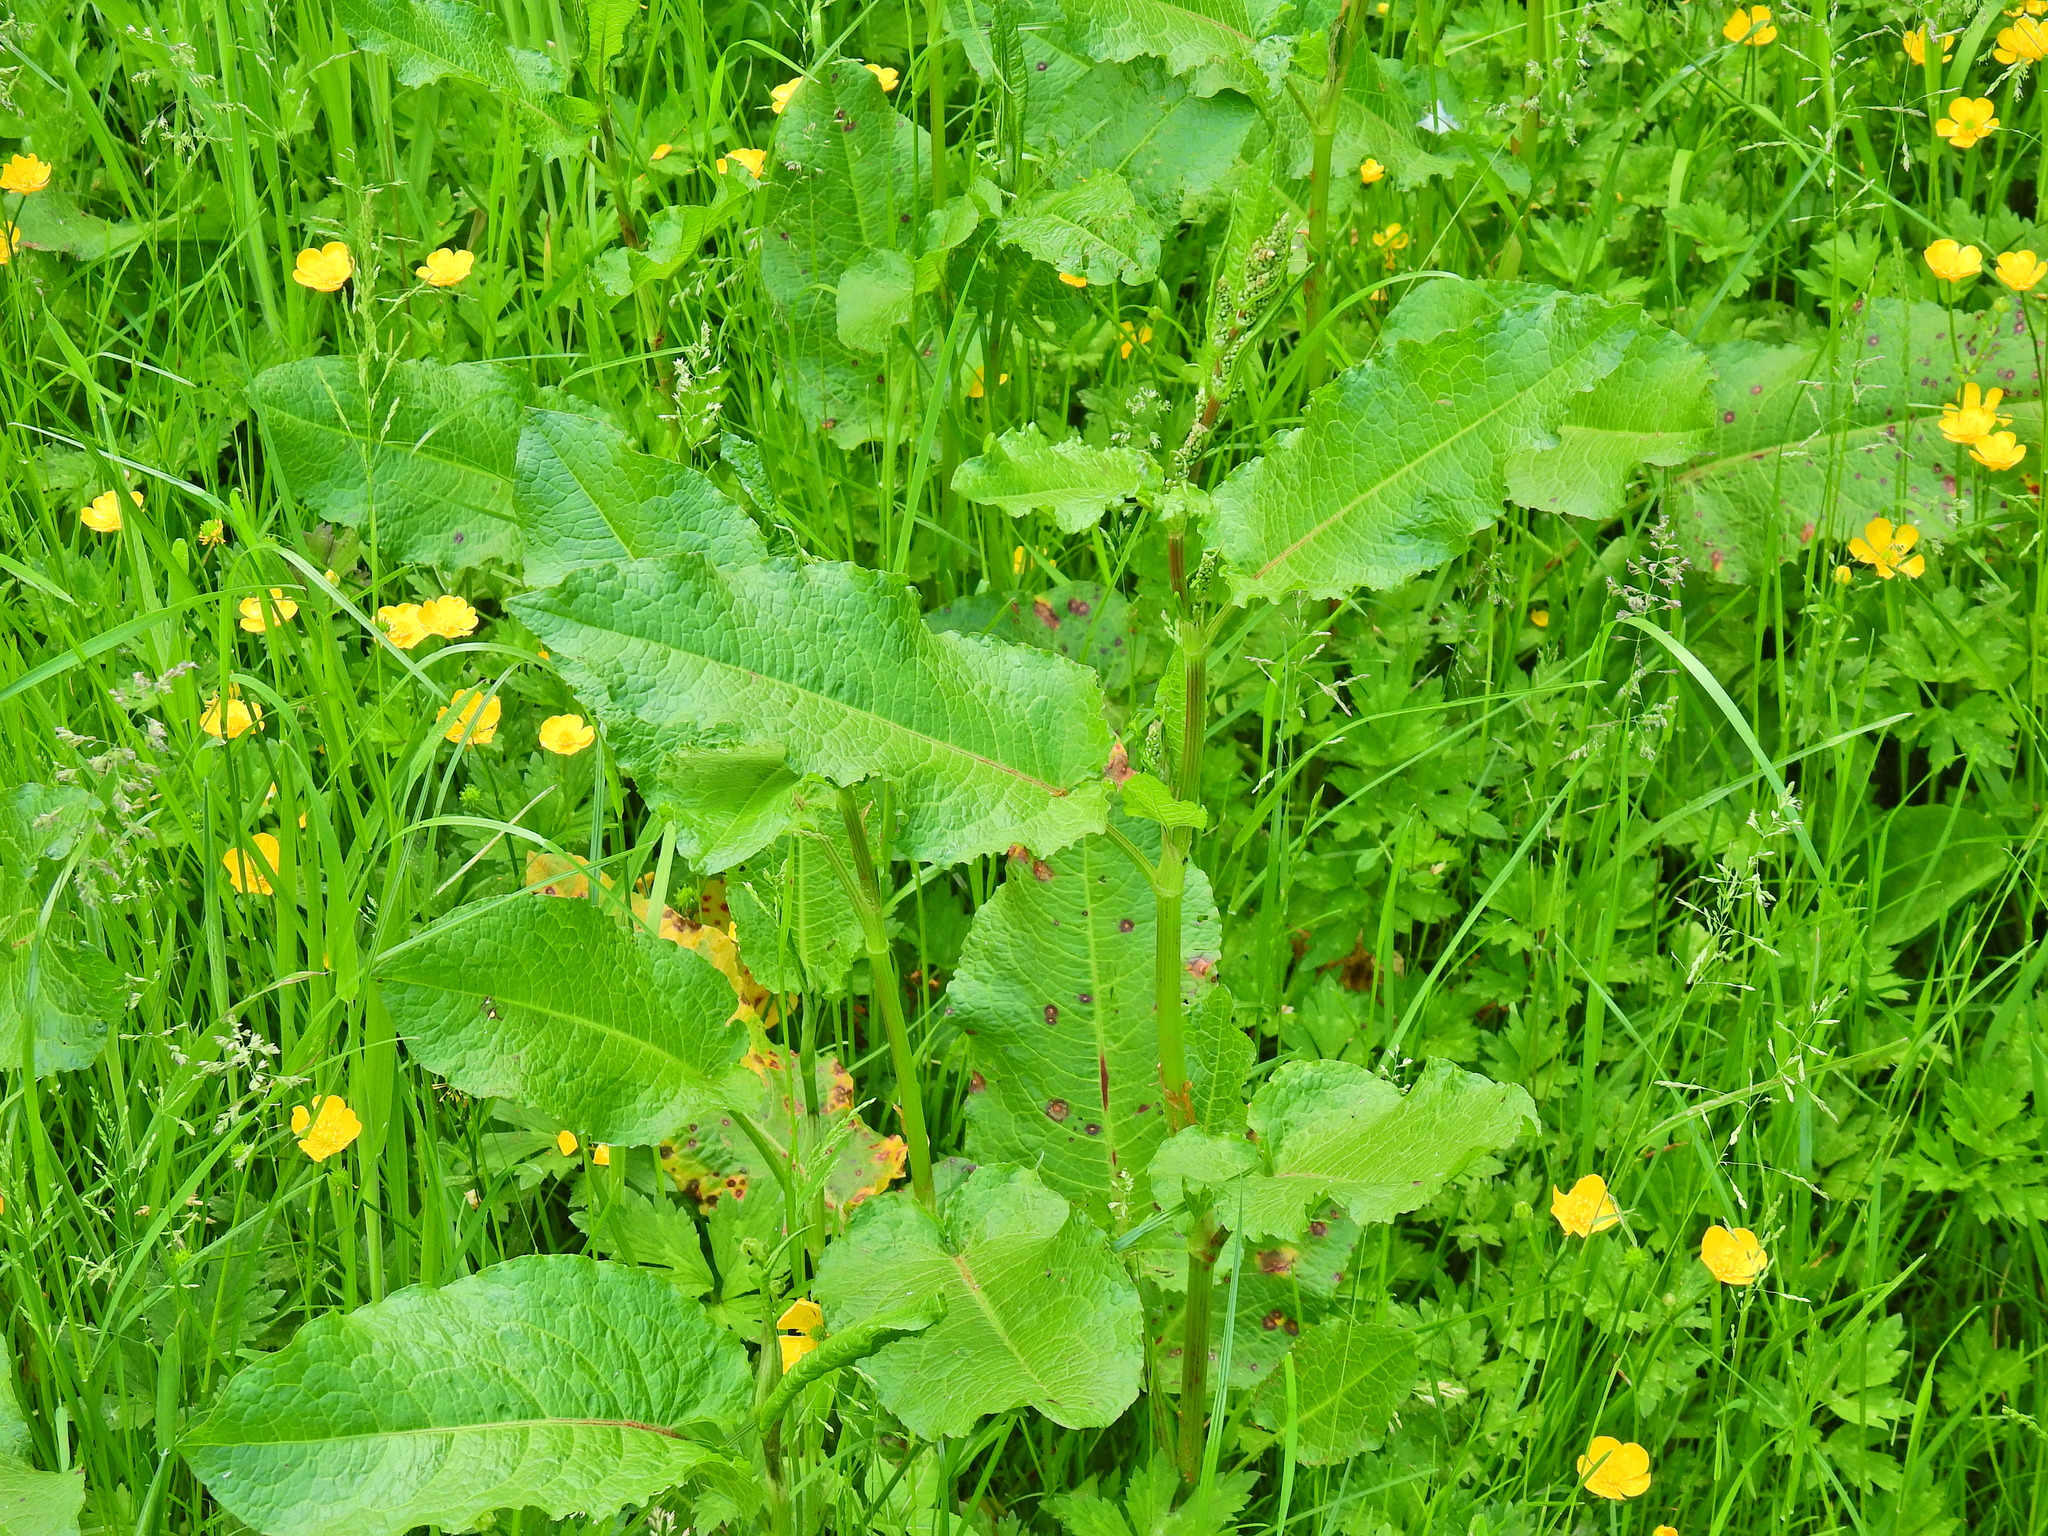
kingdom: Plantae
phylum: Tracheophyta
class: Magnoliopsida
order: Caryophyllales
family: Polygonaceae
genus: Rumex
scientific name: Rumex obtusifolius
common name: Bitter dock
